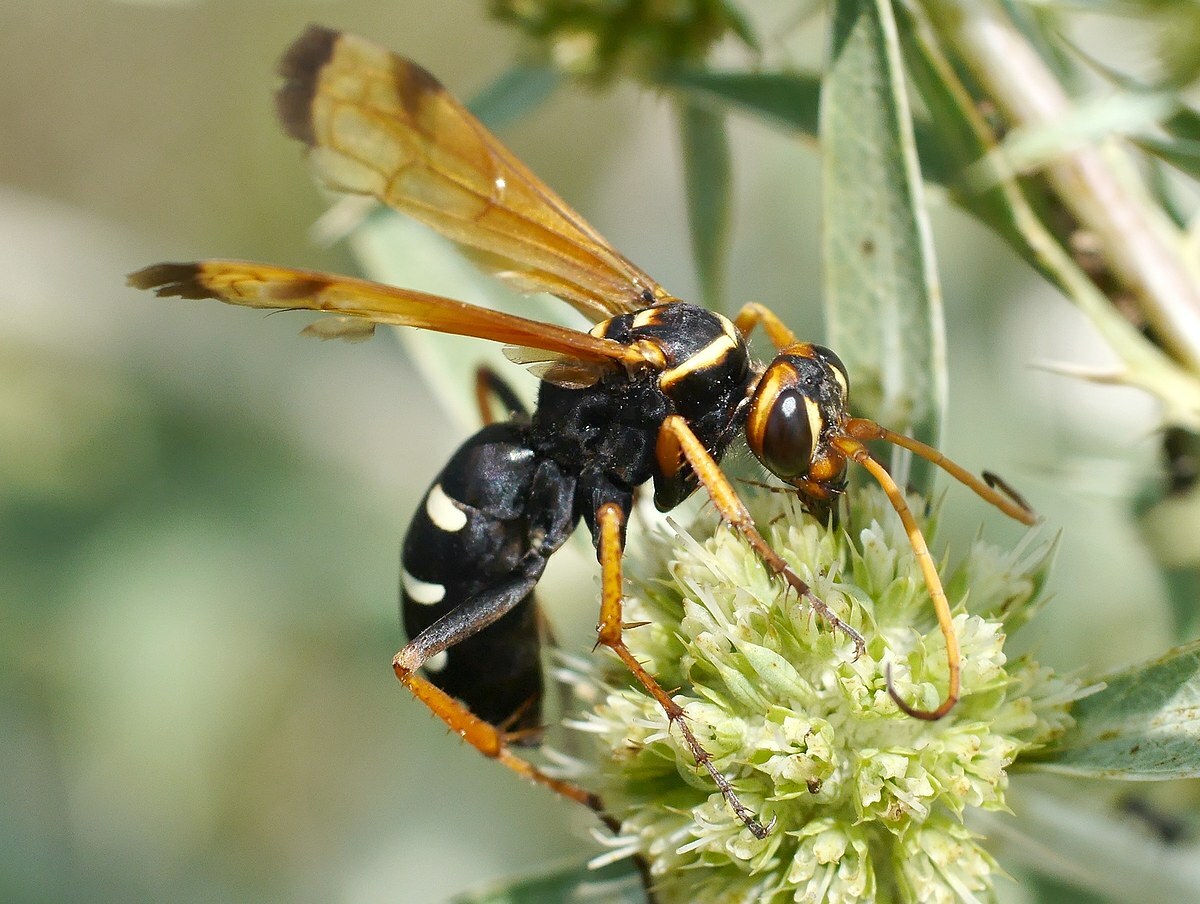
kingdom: Animalia
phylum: Arthropoda
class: Insecta
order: Hymenoptera
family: Pompilidae
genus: Parabatozonus
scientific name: Parabatozonus lacerticida
